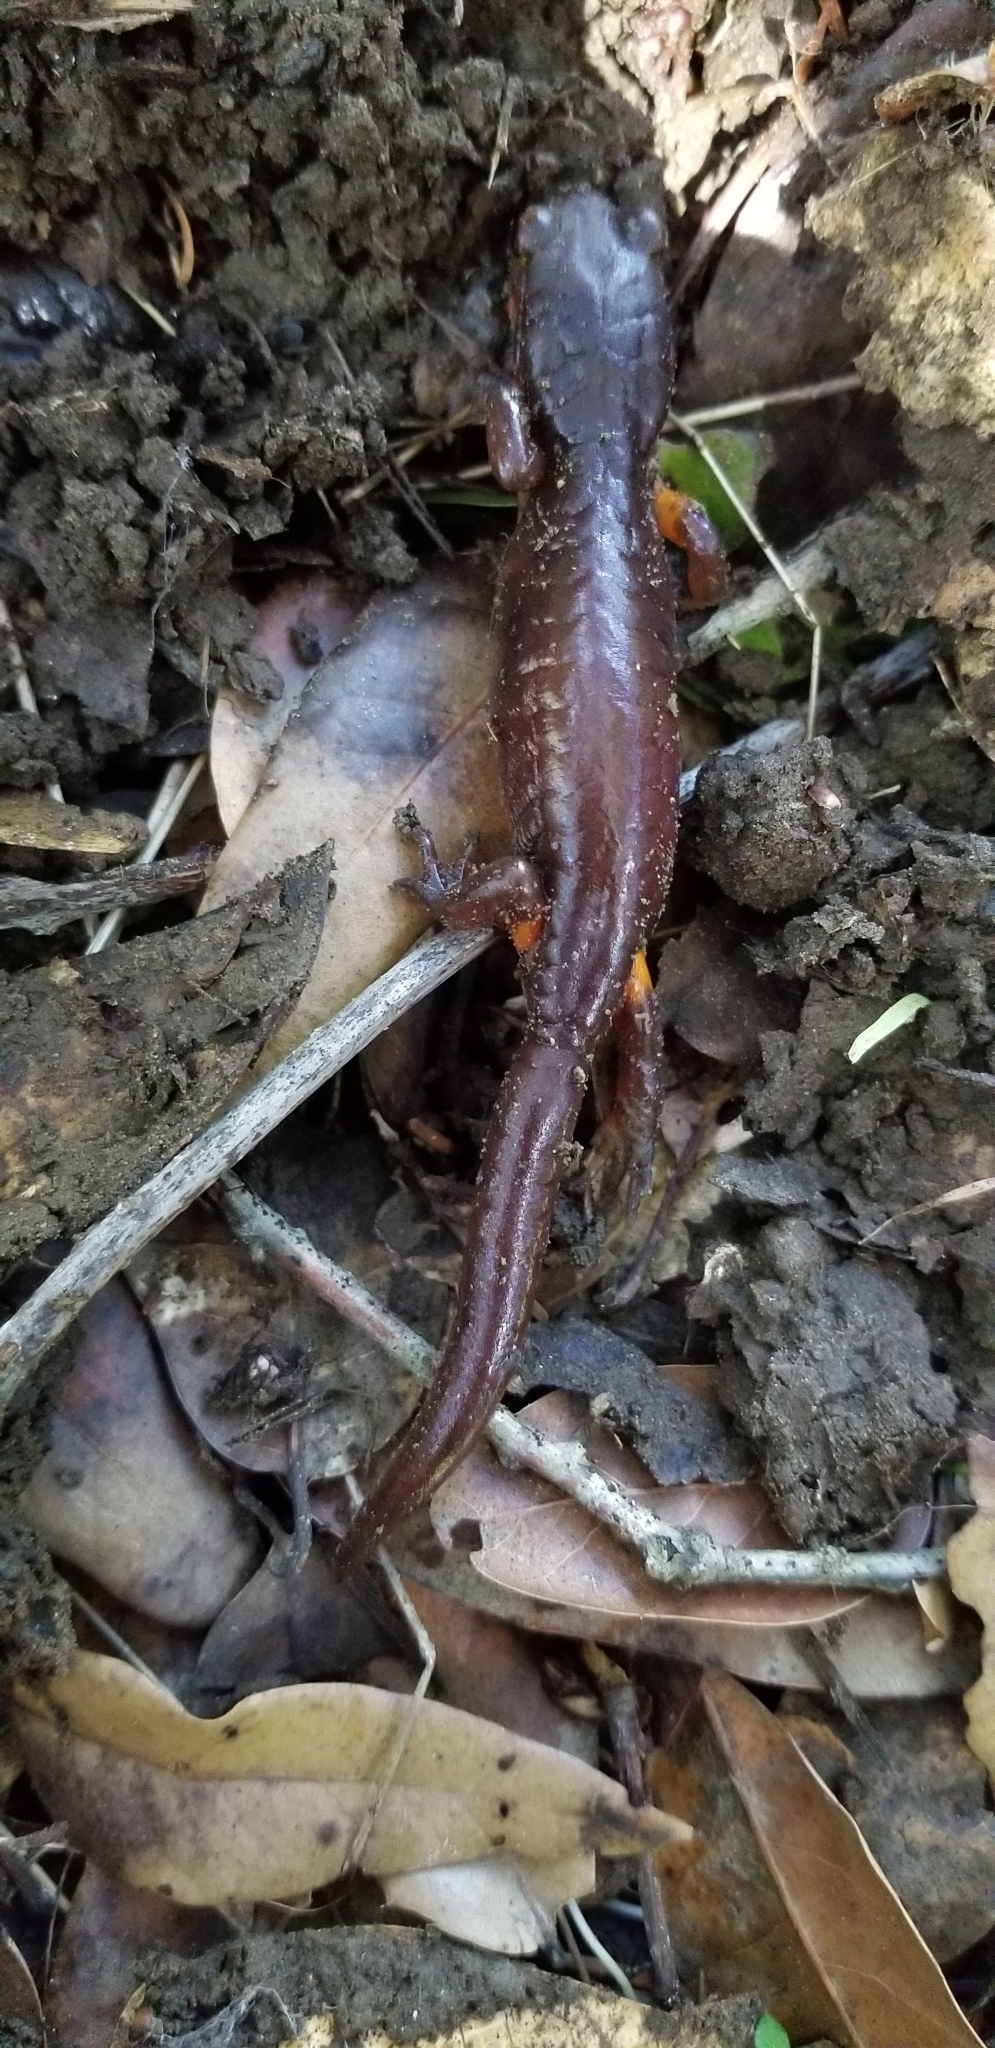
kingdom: Animalia
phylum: Chordata
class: Amphibia
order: Caudata
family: Plethodontidae
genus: Ensatina
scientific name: Ensatina eschscholtzii
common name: Ensatina
